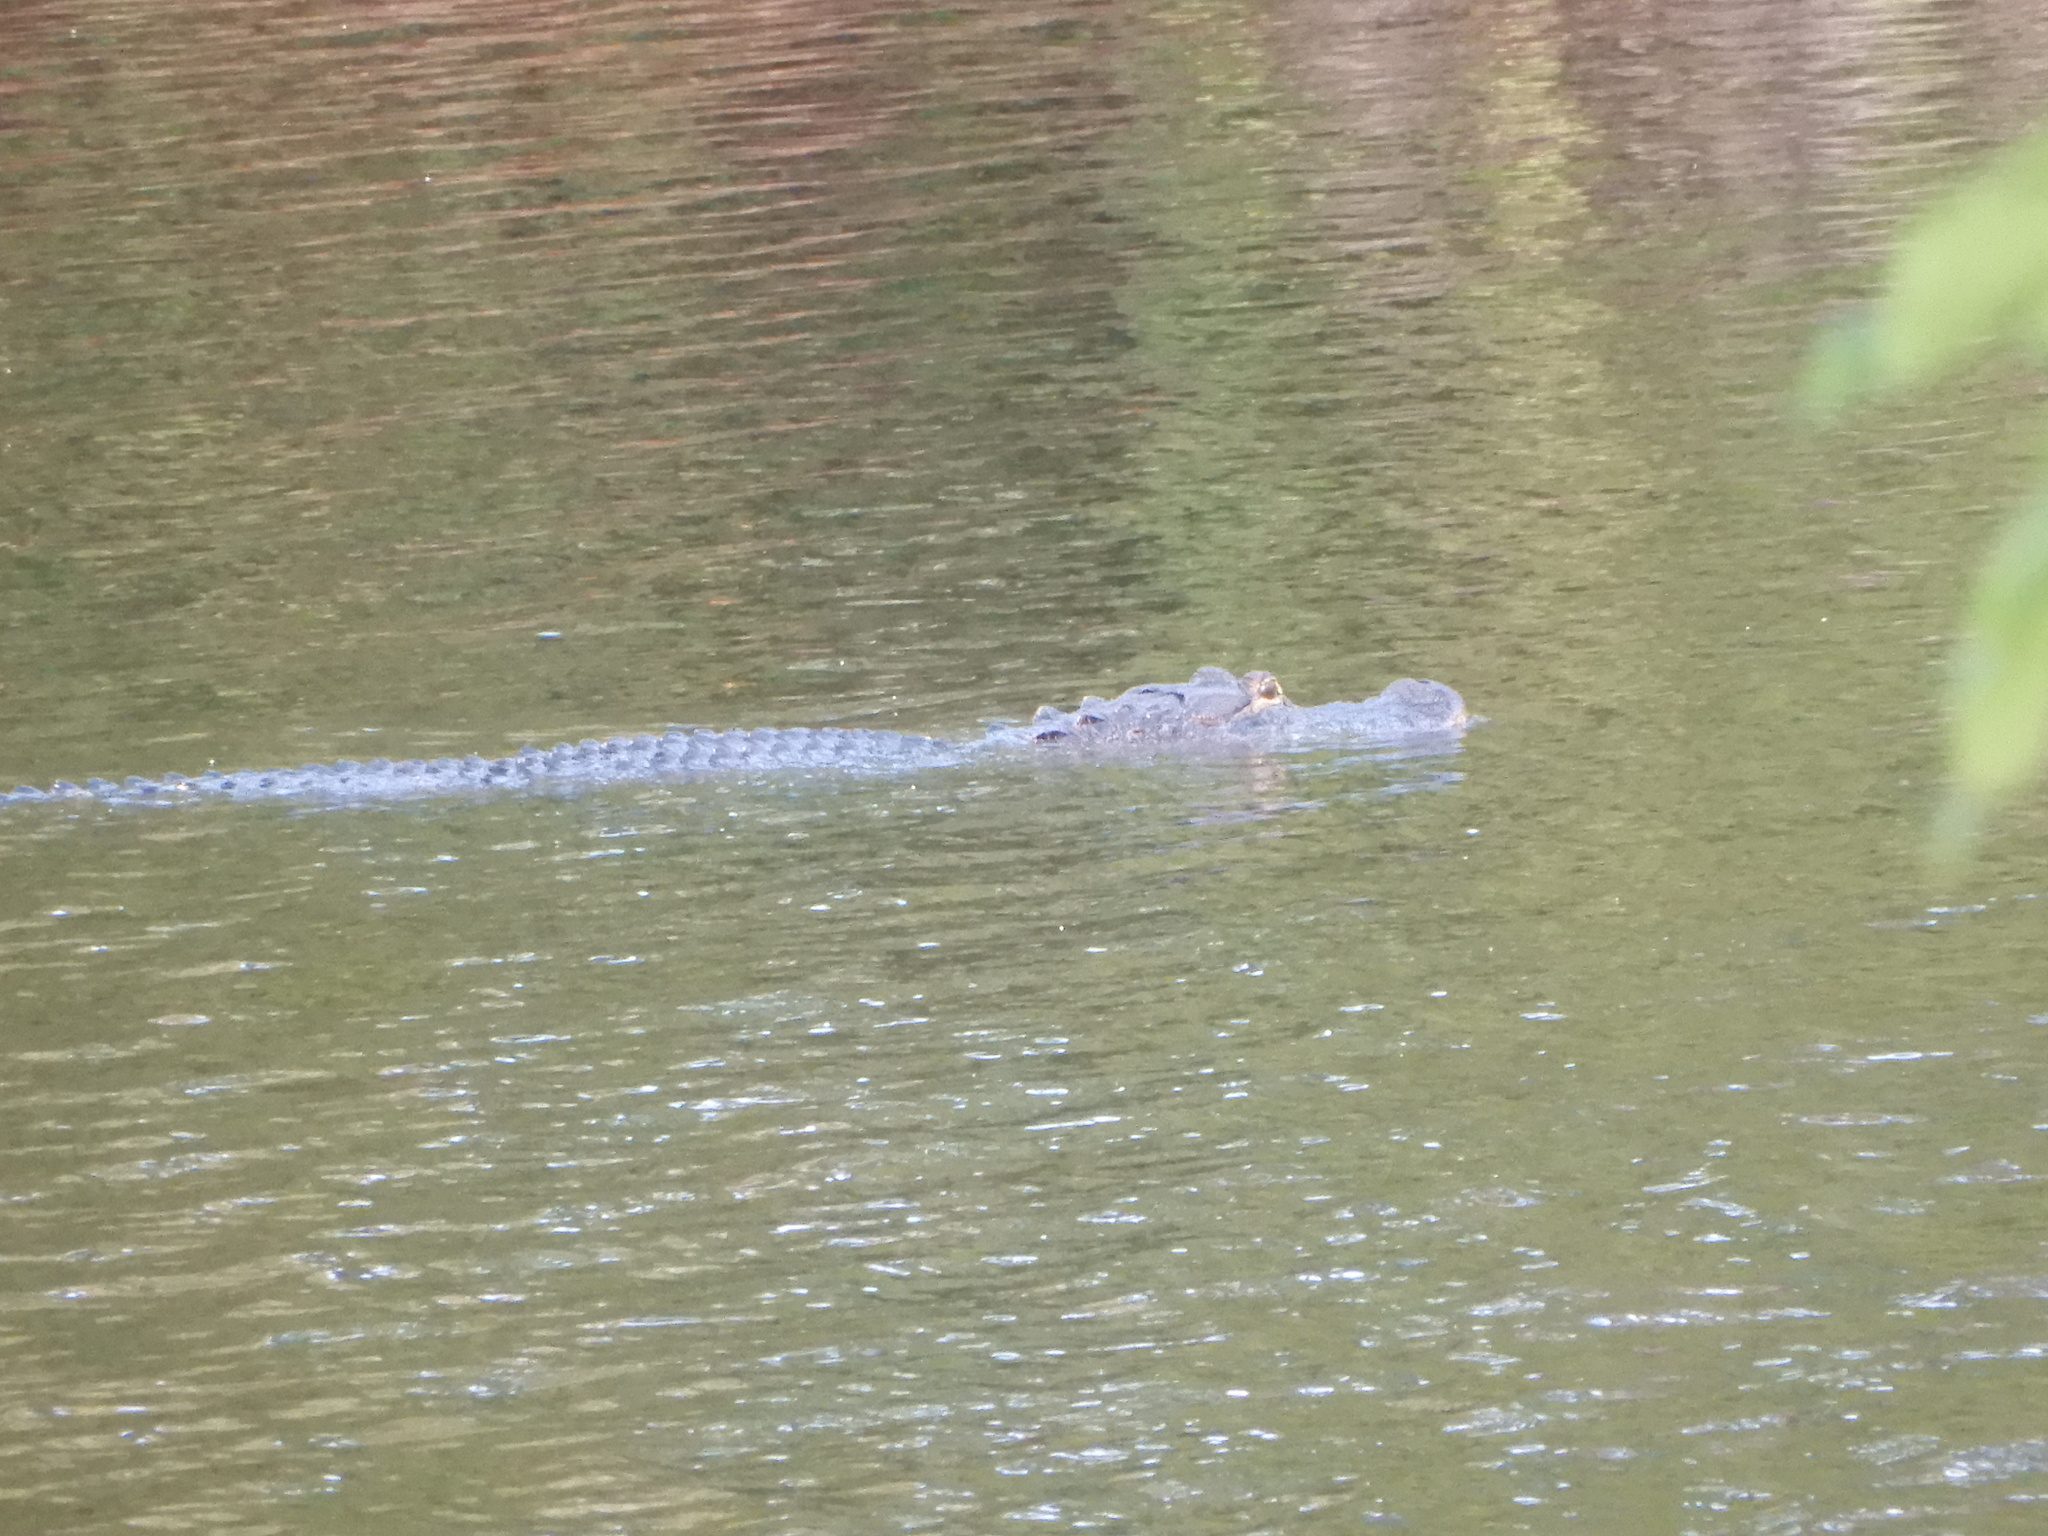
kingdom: Animalia
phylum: Chordata
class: Crocodylia
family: Alligatoridae
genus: Alligator
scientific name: Alligator mississippiensis
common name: American alligator
